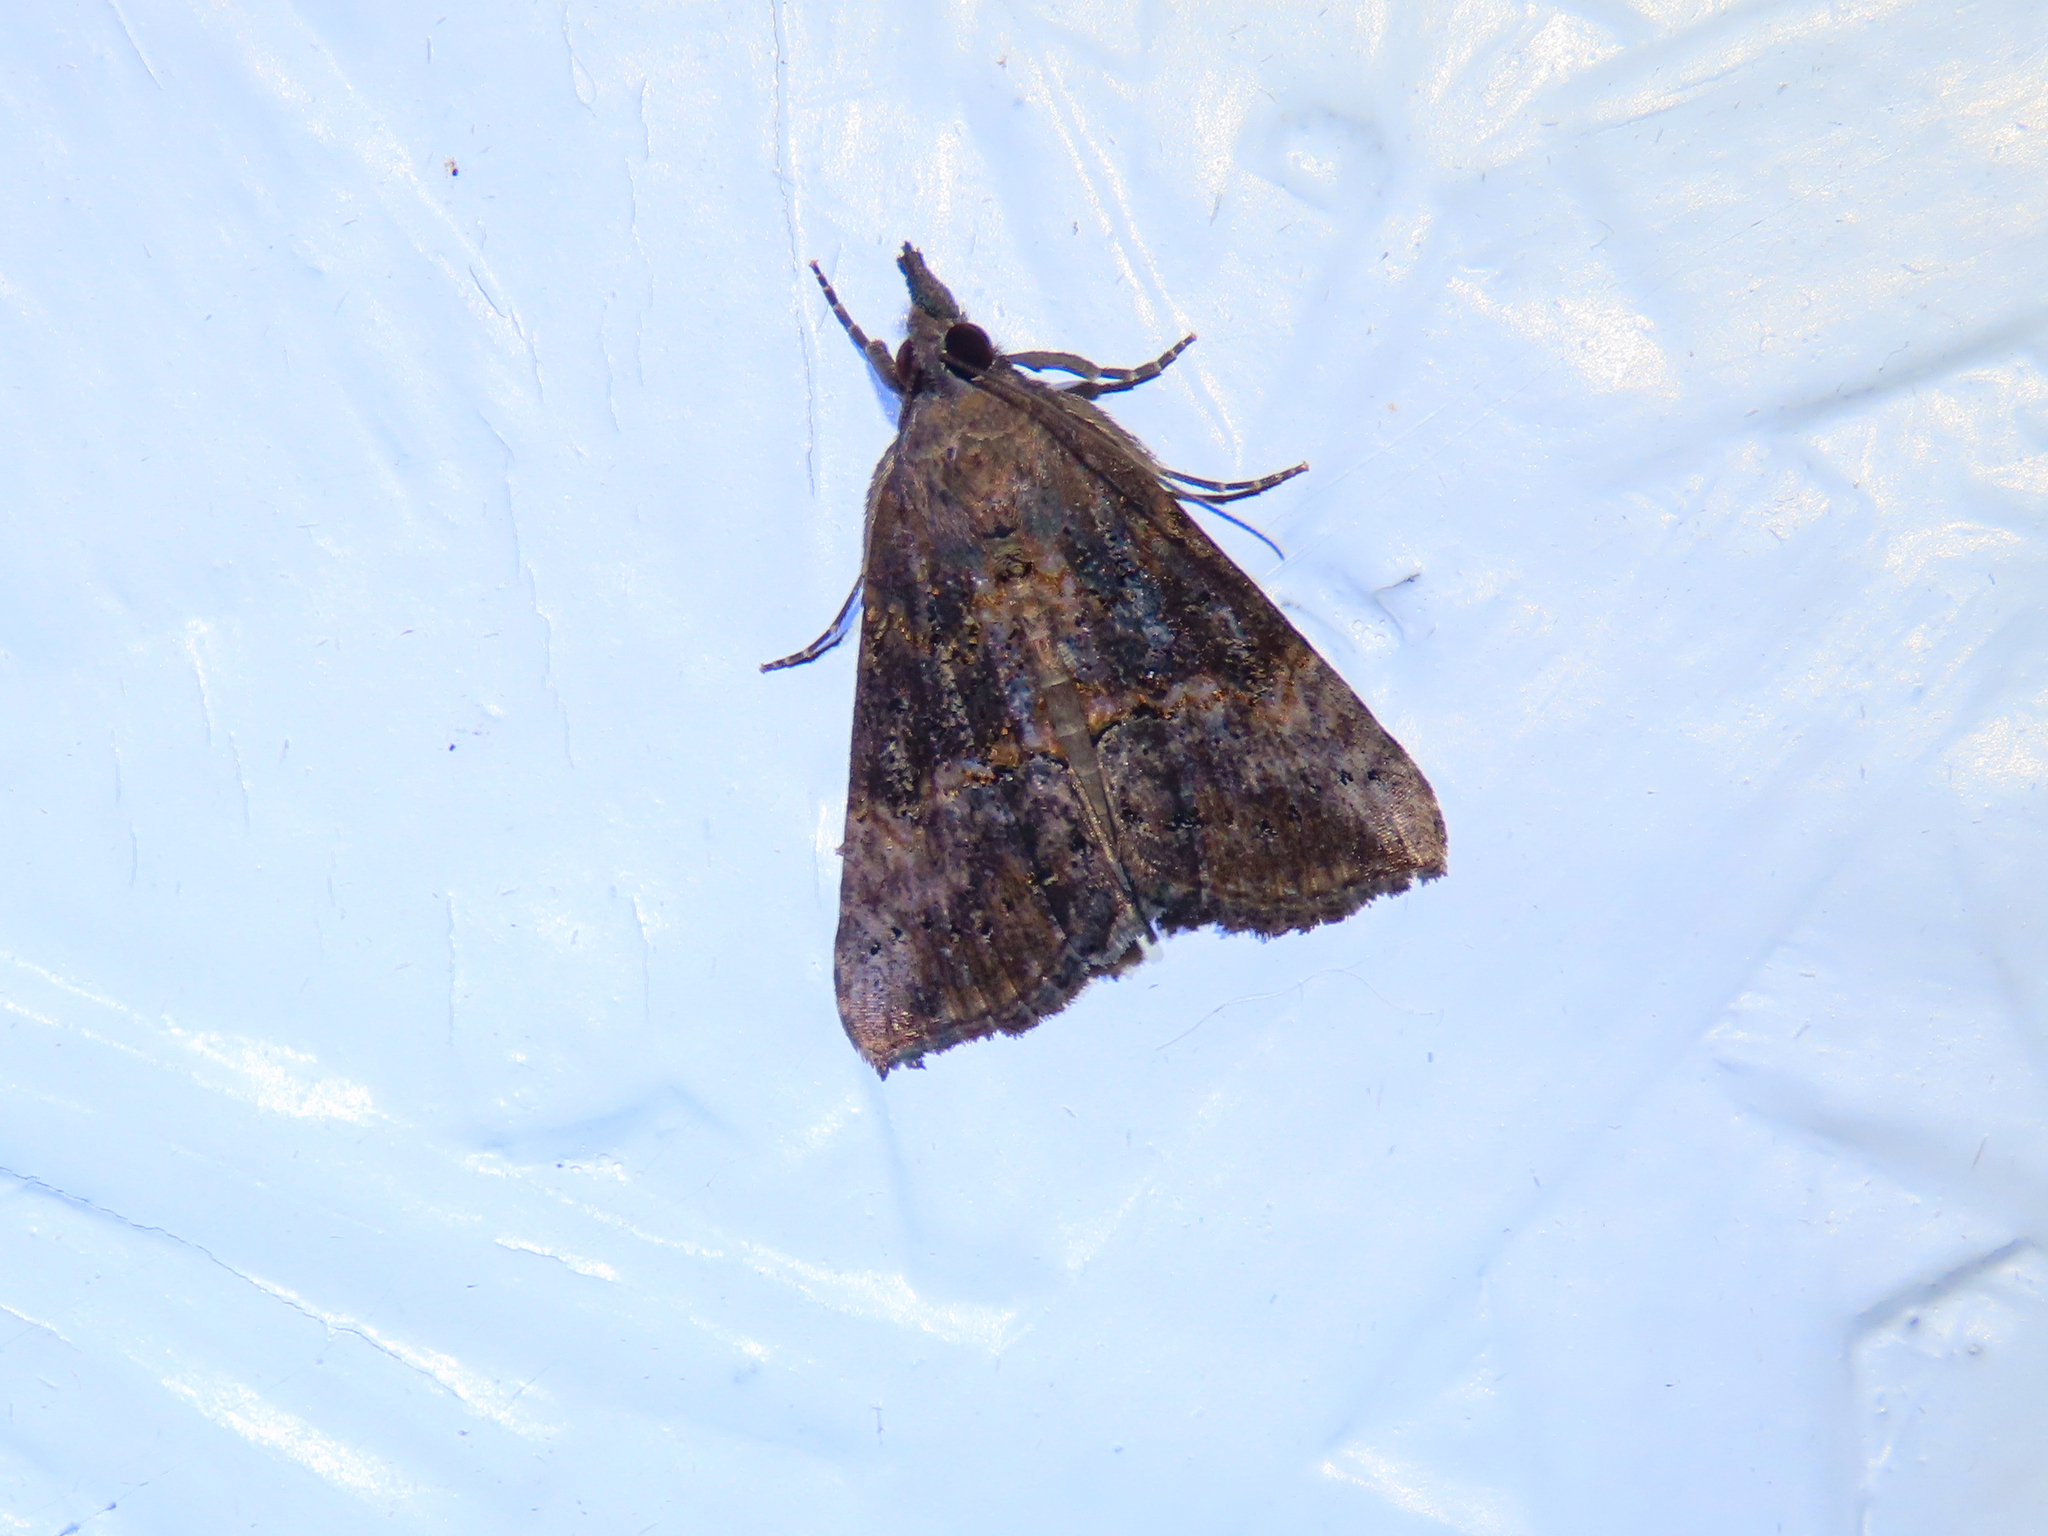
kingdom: Animalia
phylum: Arthropoda
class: Insecta
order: Lepidoptera
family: Erebidae
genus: Hypena
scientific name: Hypena scabra
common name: Green cloverworm
